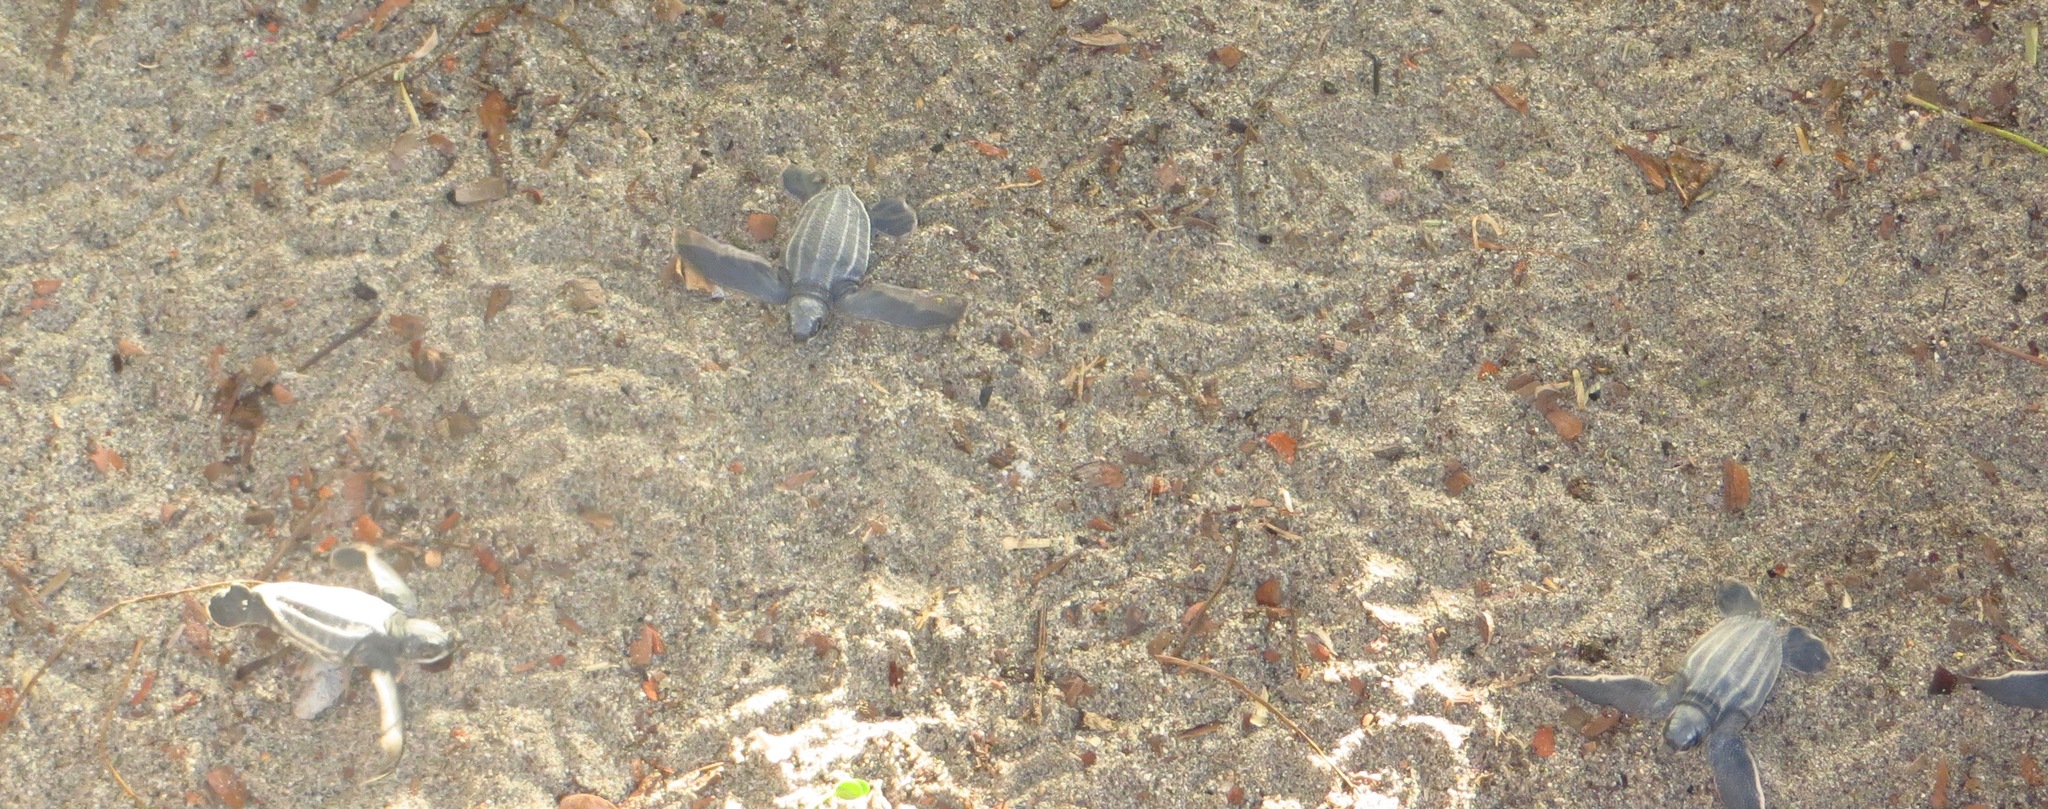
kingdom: Animalia
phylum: Chordata
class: Testudines
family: Dermochelyidae
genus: Dermochelys
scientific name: Dermochelys coriacea
